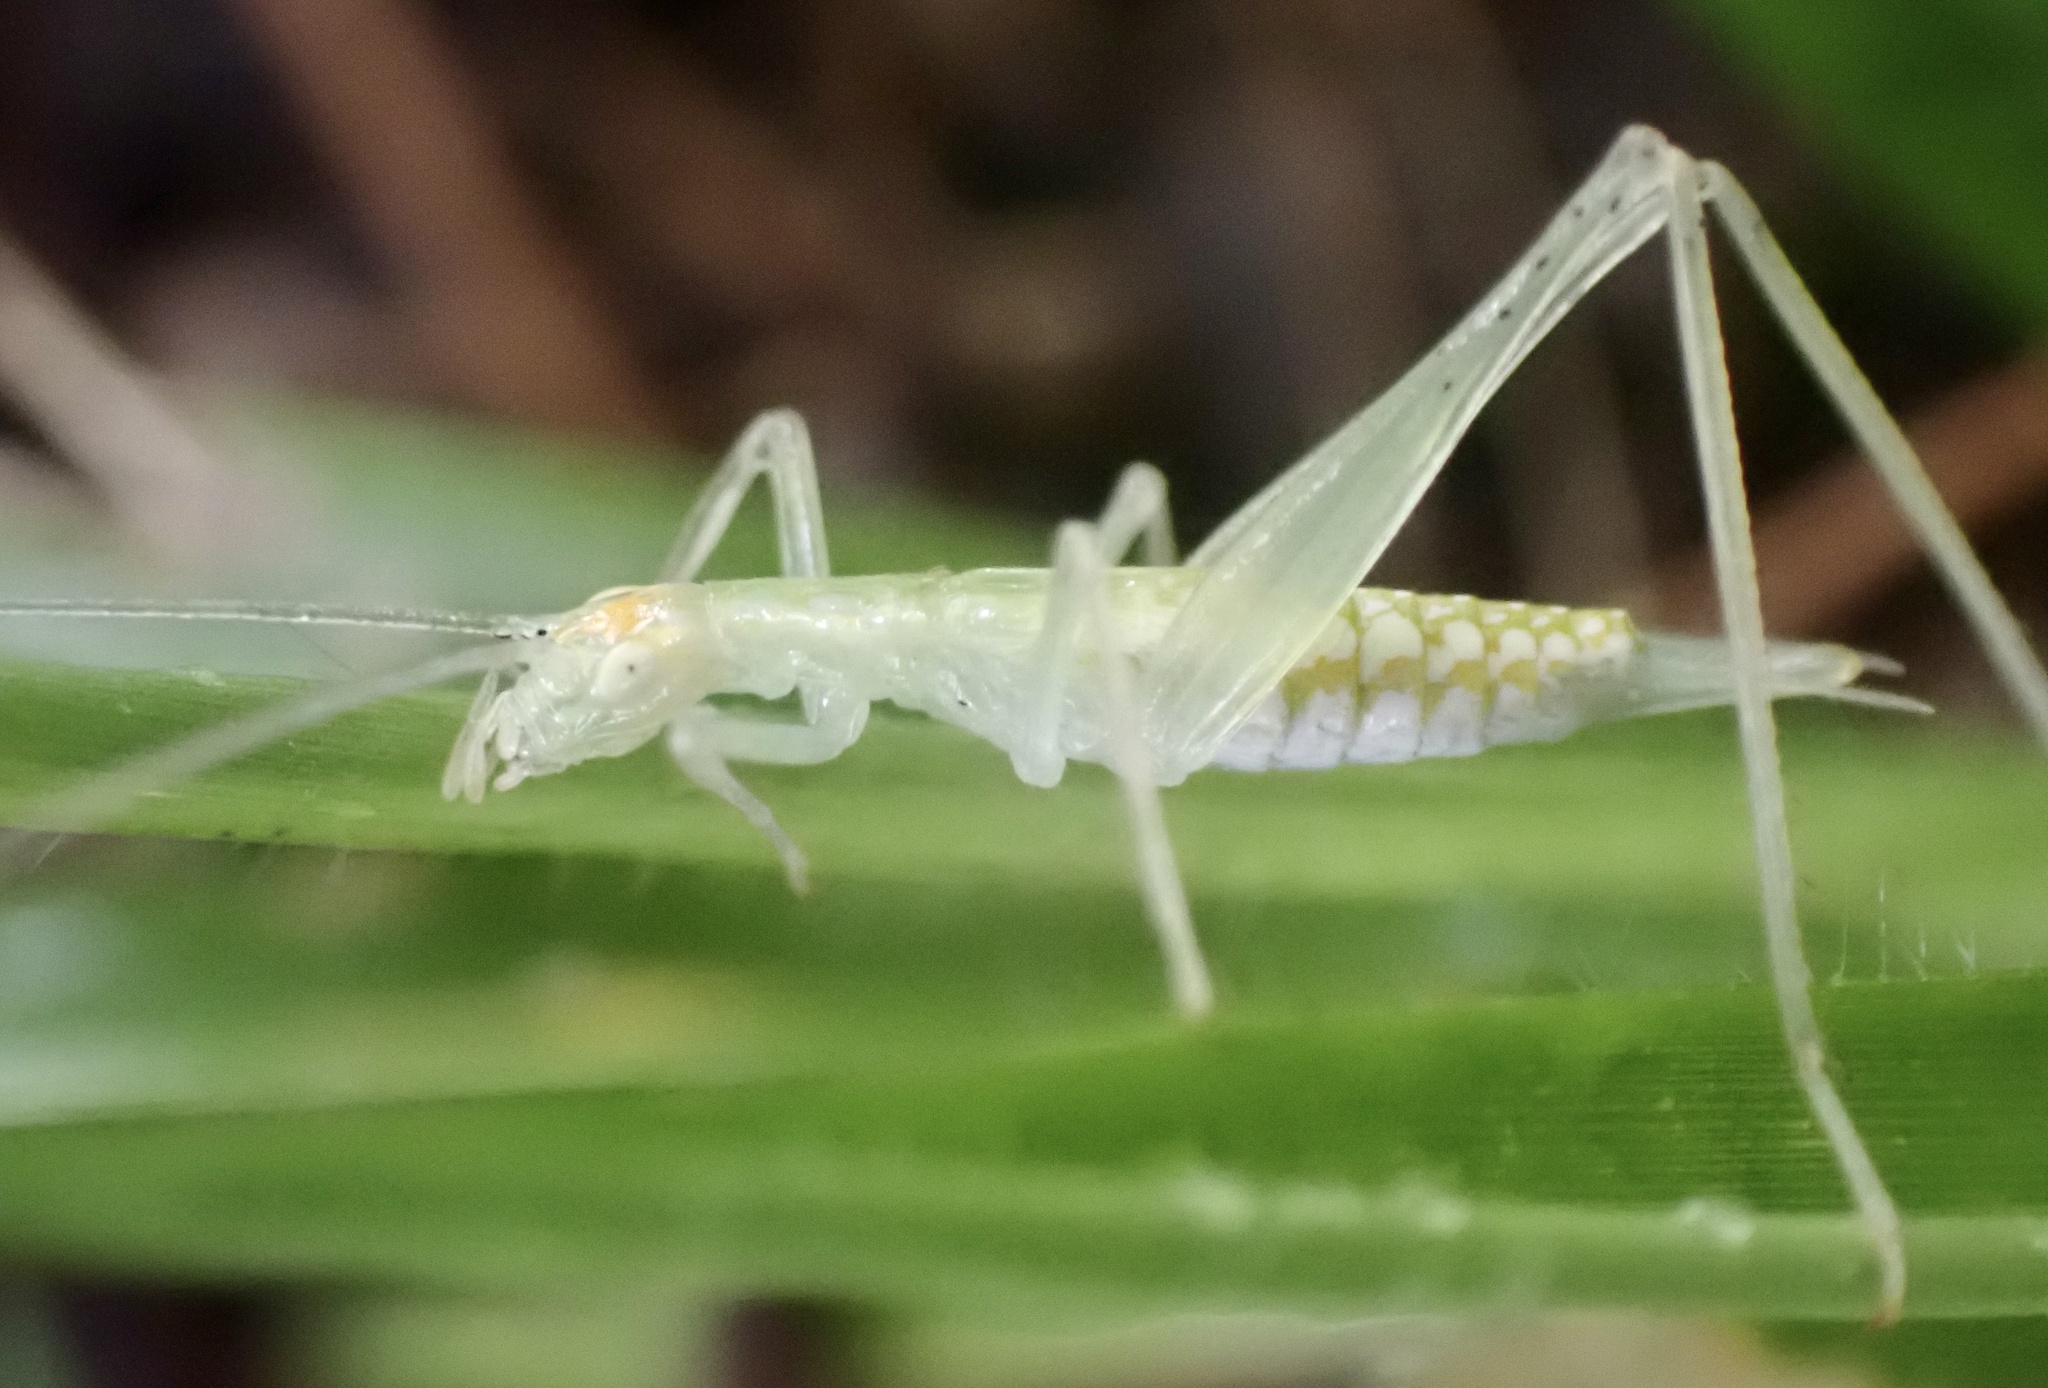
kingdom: Animalia
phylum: Arthropoda
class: Insecta
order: Orthoptera
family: Gryllidae
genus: Oecanthus
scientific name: Oecanthus niveus
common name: Narrow-winged tree cricket
